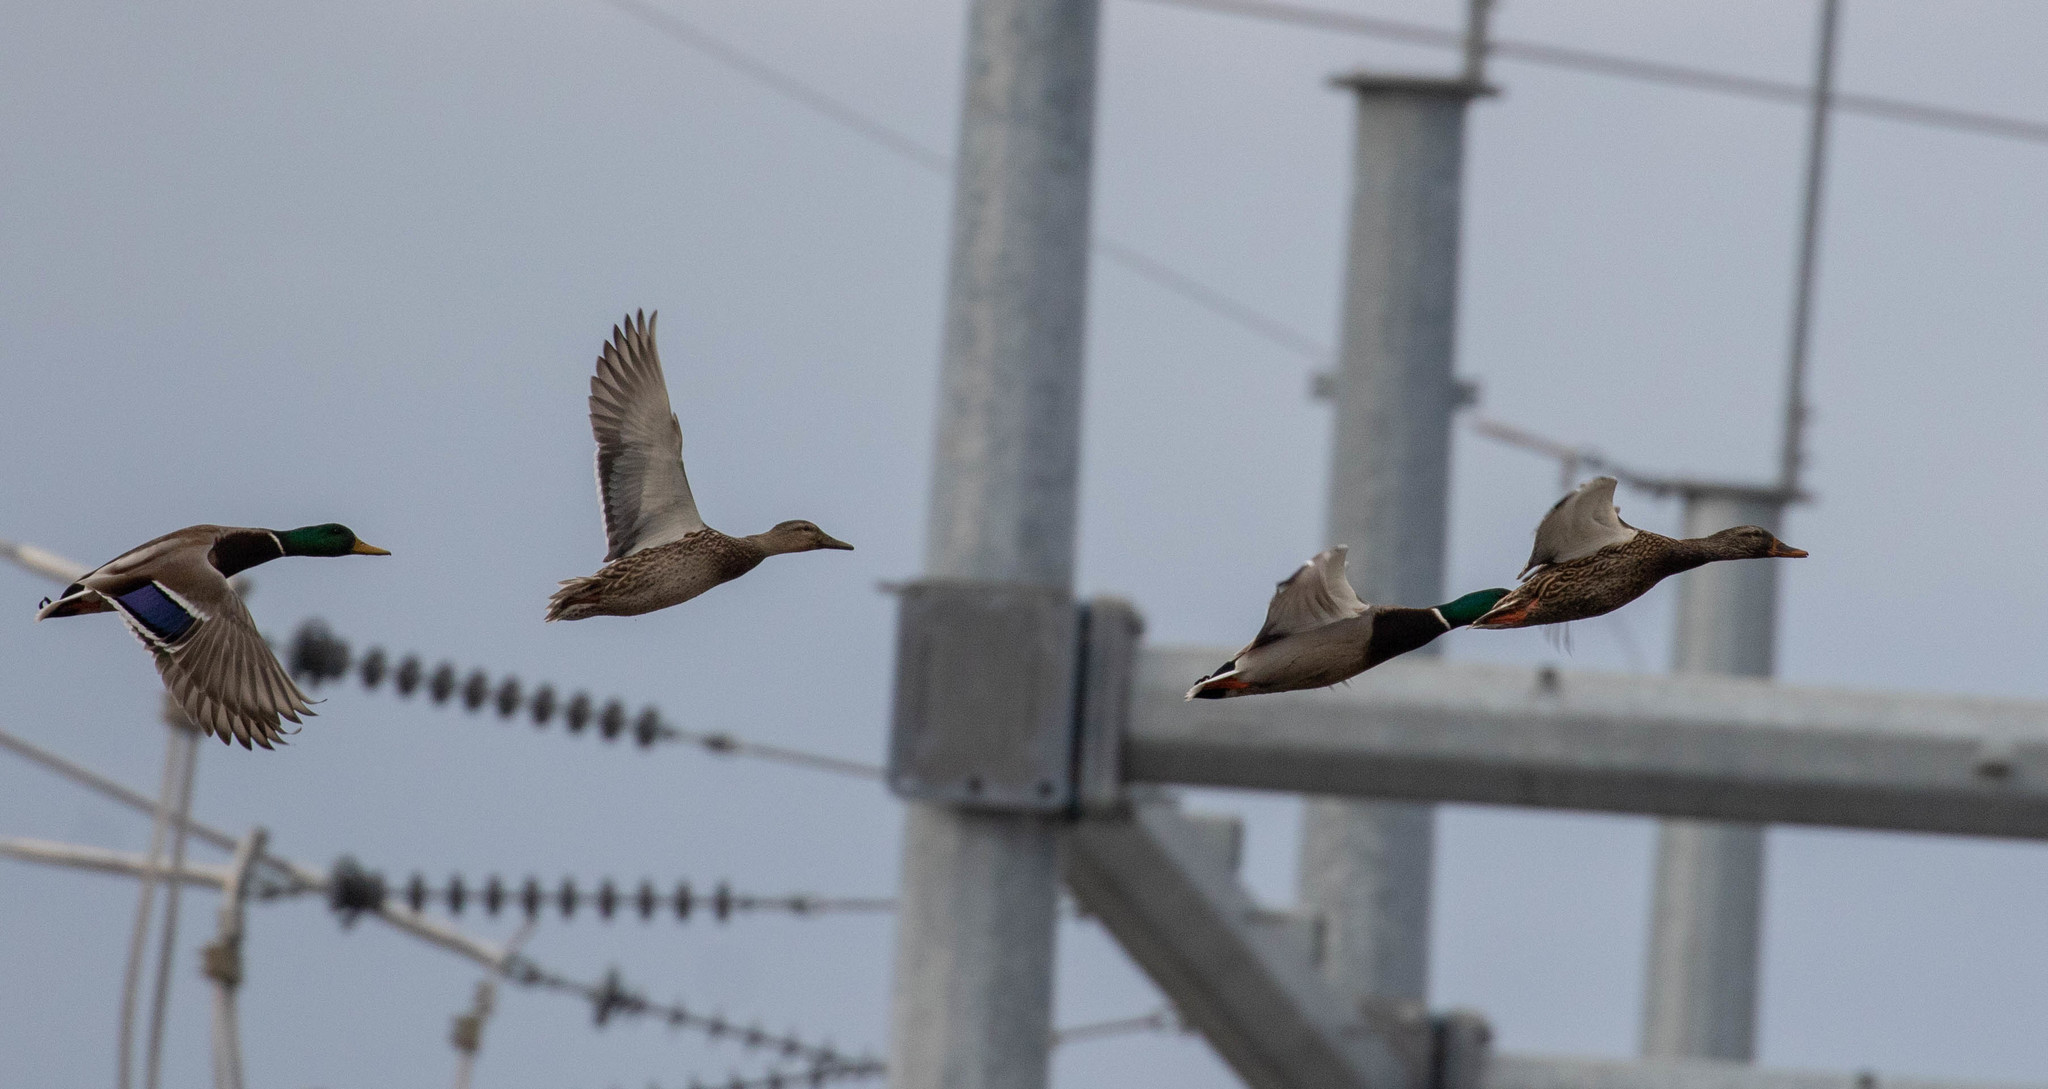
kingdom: Animalia
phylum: Chordata
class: Aves
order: Anseriformes
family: Anatidae
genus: Anas
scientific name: Anas platyrhynchos
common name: Mallard
